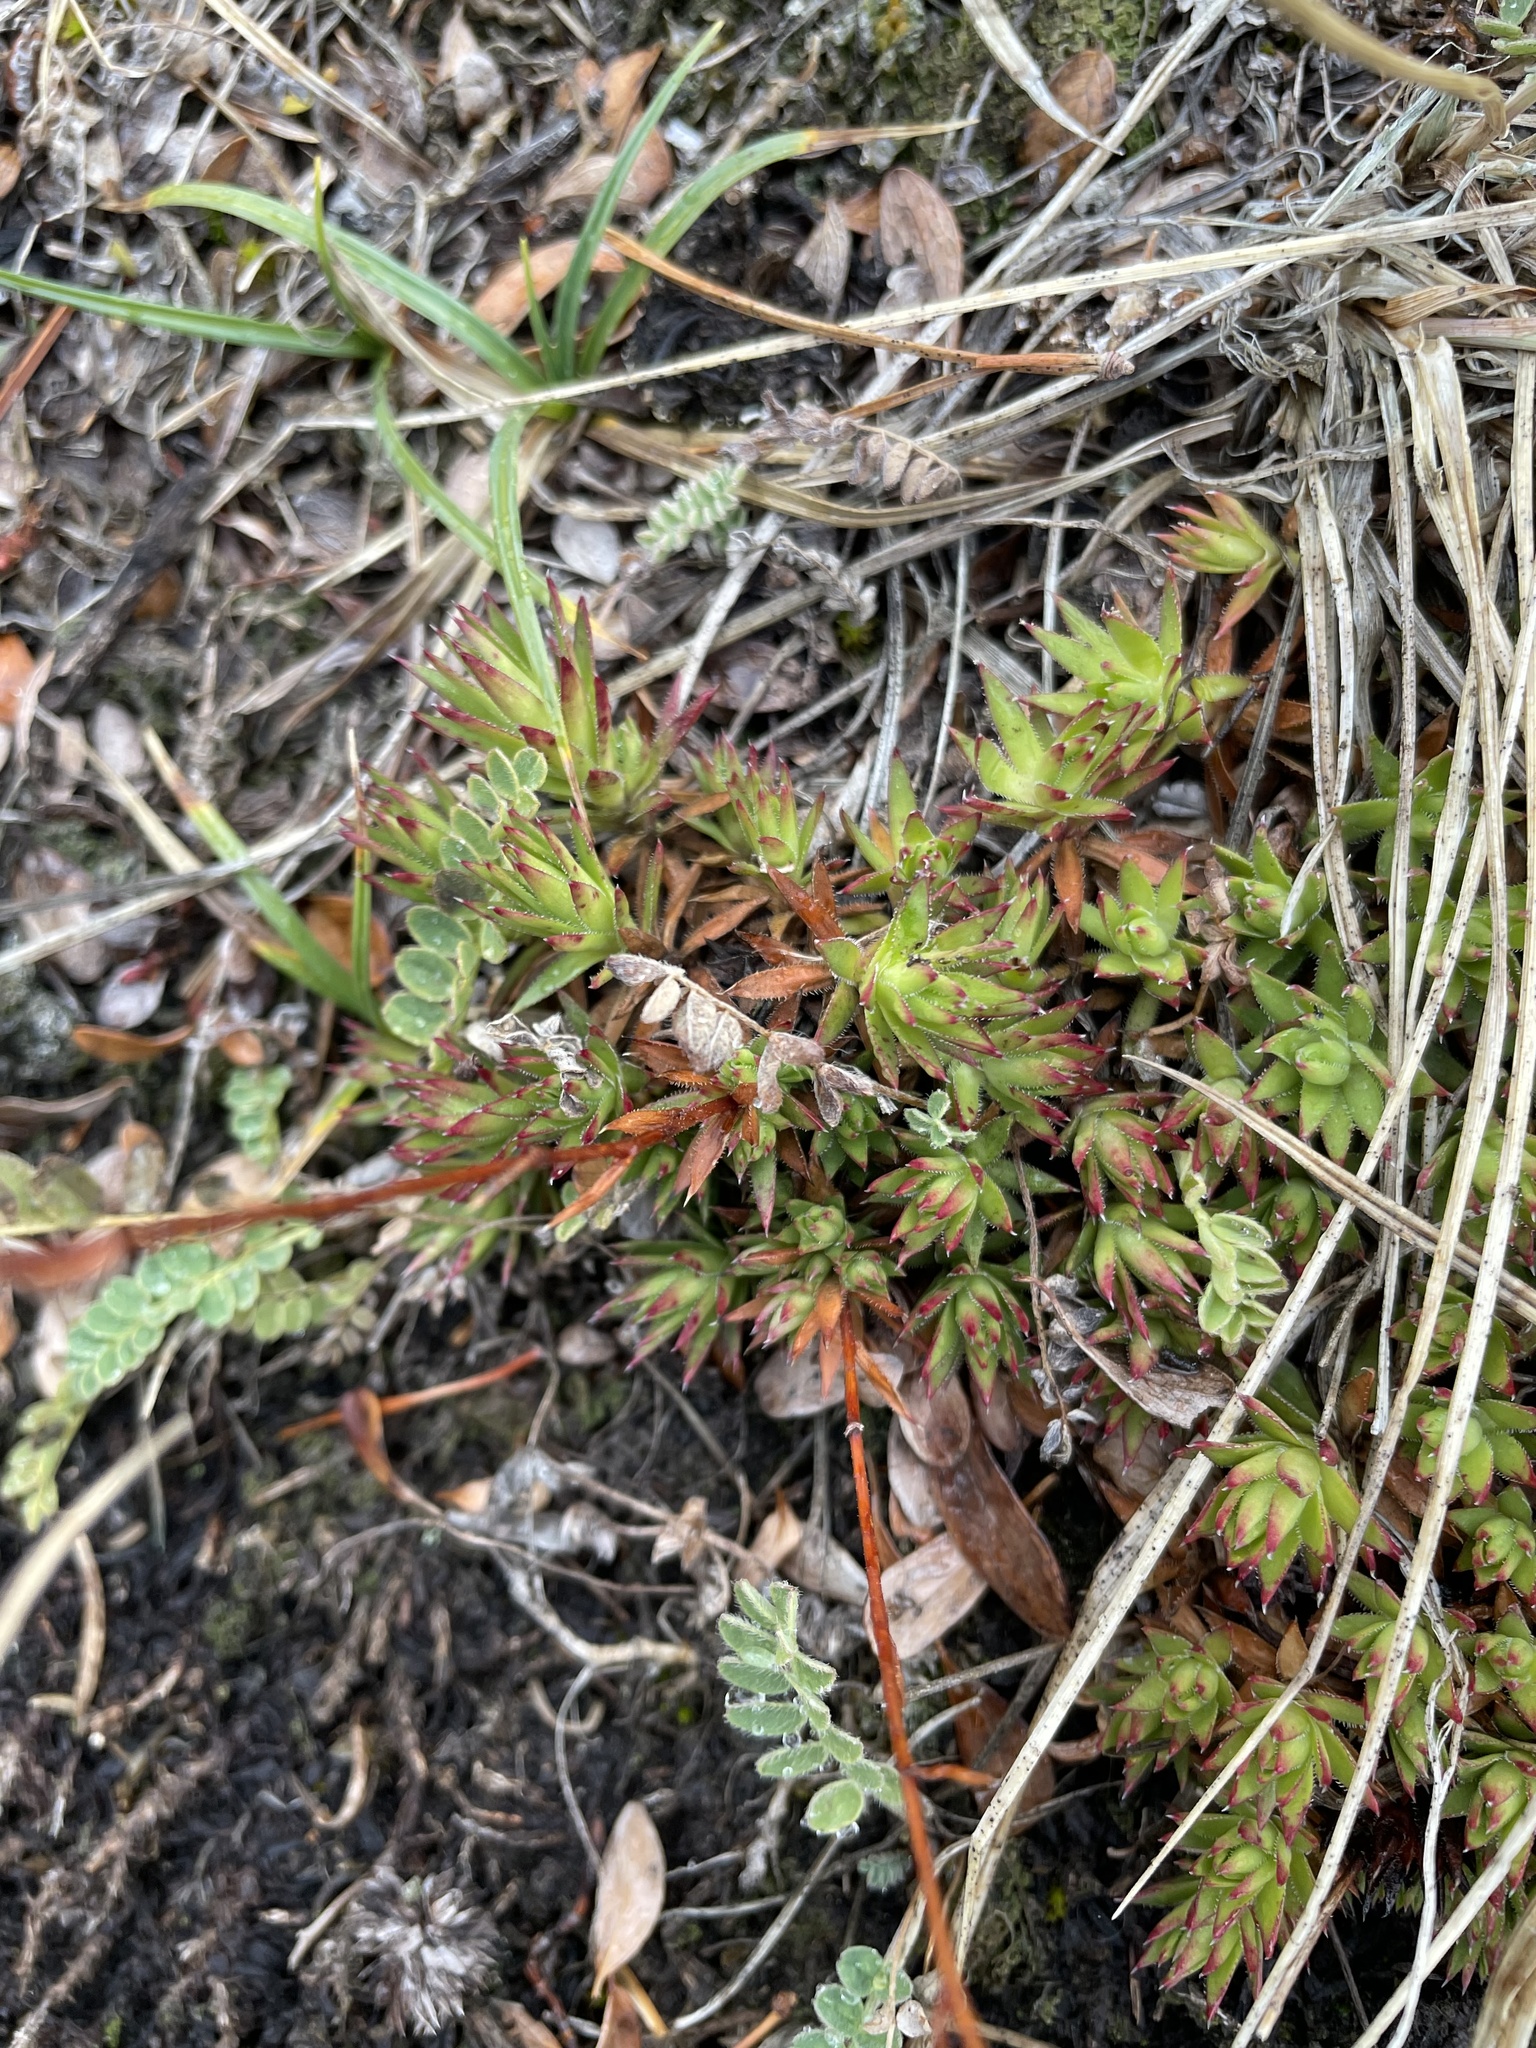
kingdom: Plantae
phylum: Tracheophyta
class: Magnoliopsida
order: Saxifragales
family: Saxifragaceae
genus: Saxifraga
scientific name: Saxifraga bronchialis
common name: Matted saxifrage
